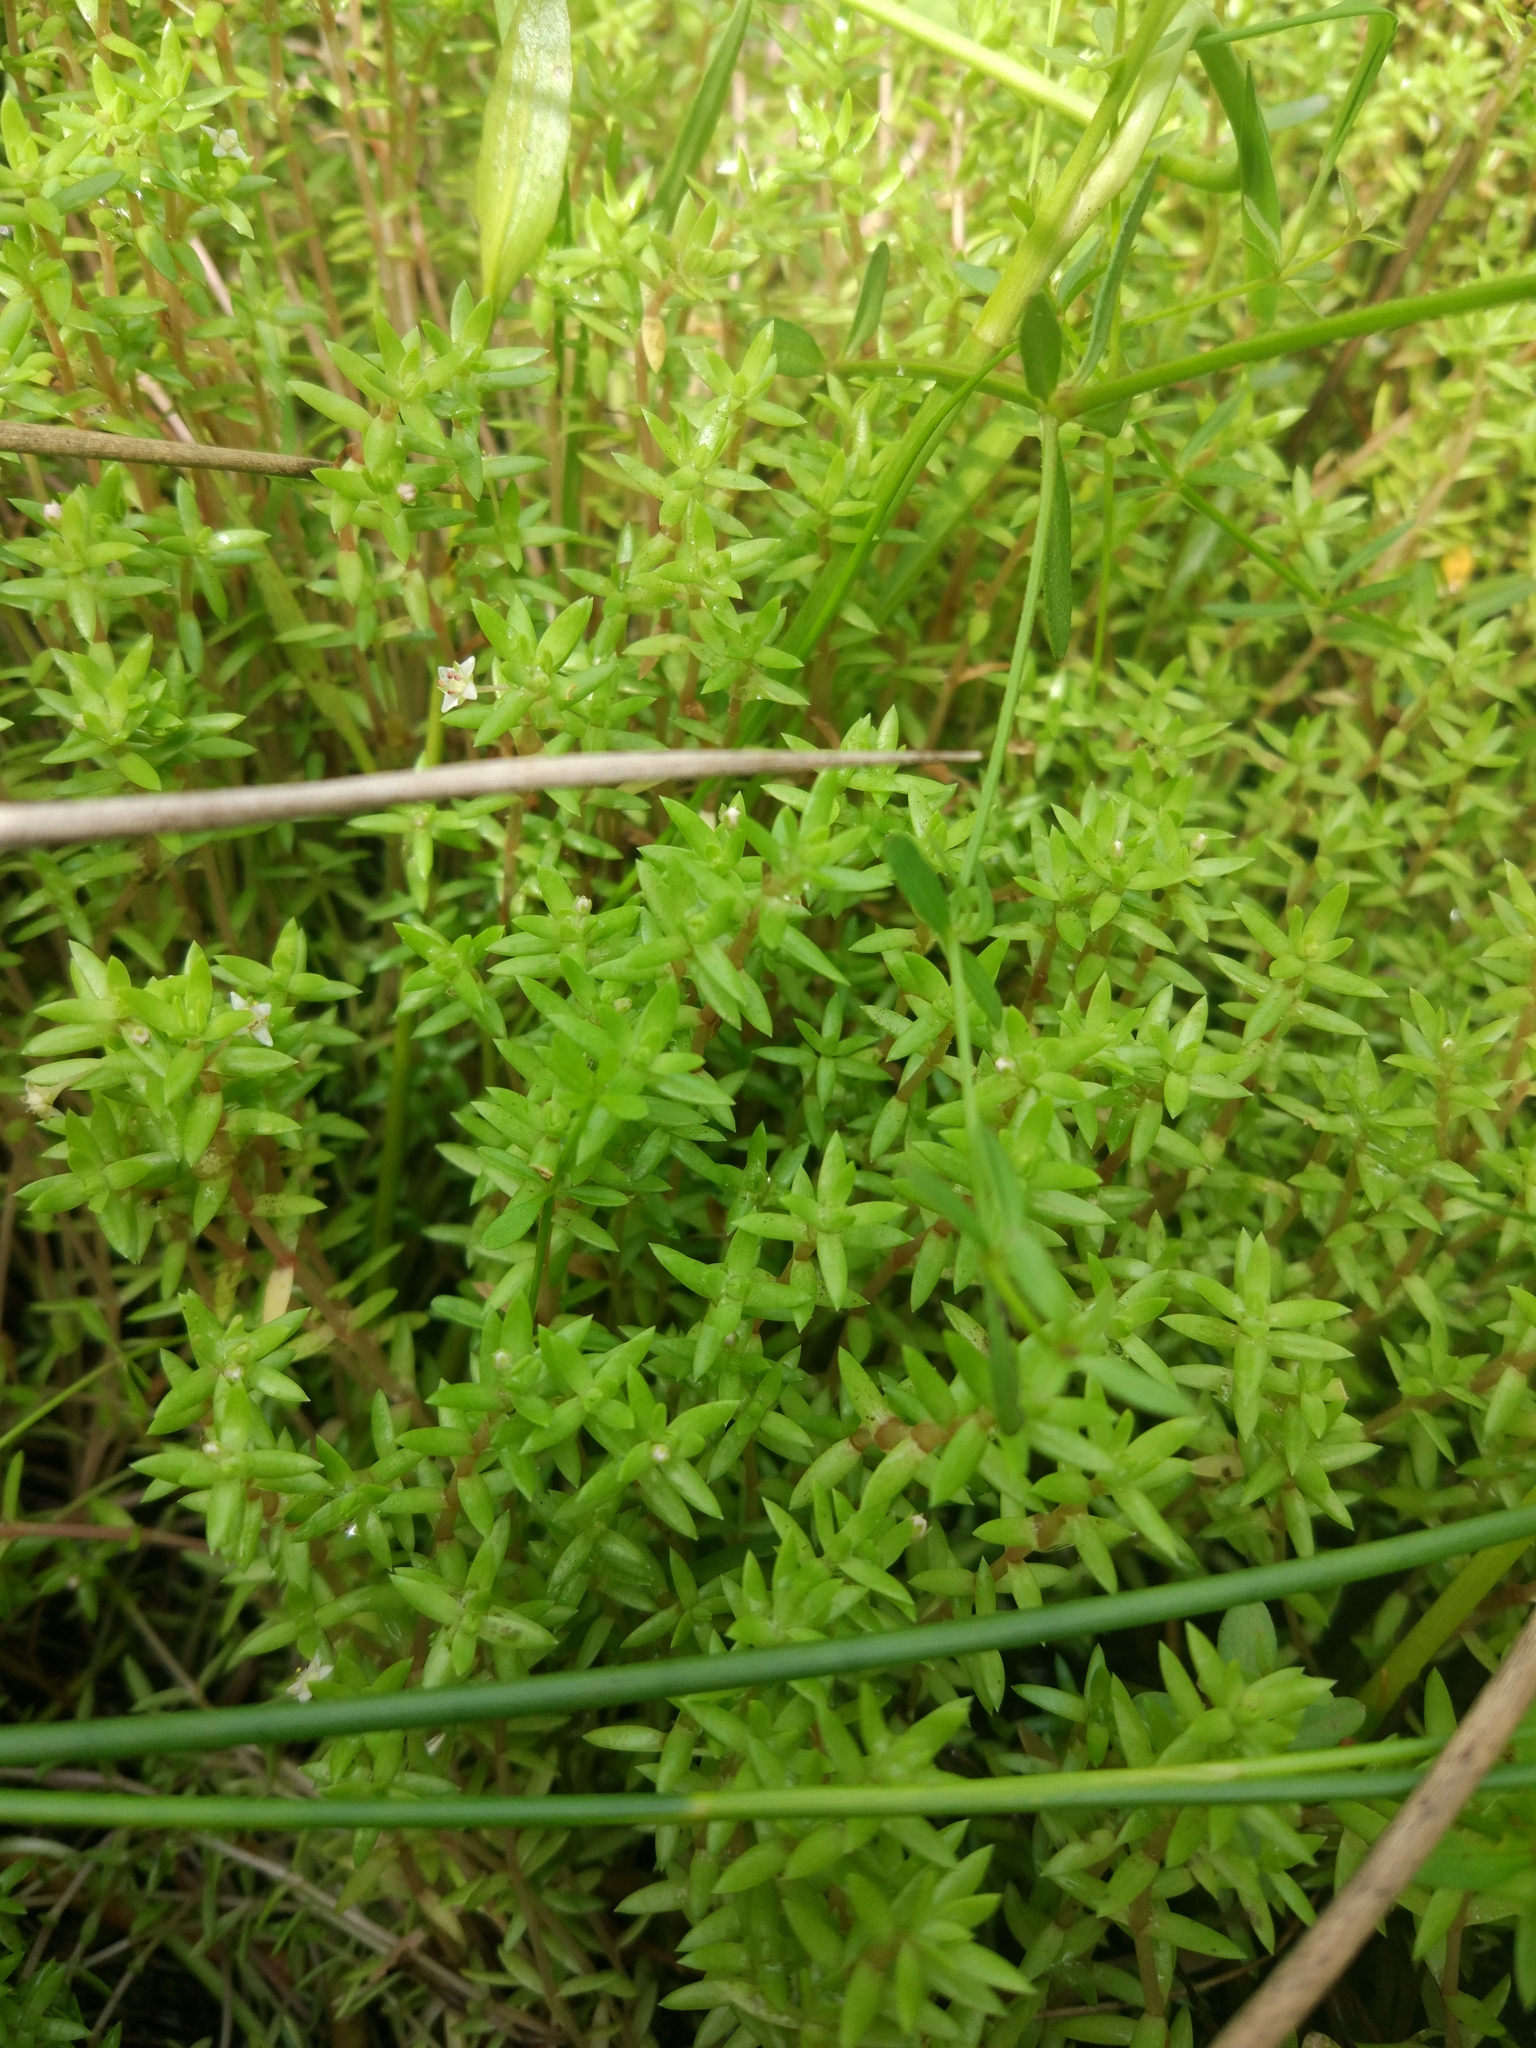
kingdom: Plantae
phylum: Tracheophyta
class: Magnoliopsida
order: Saxifragales
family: Crassulaceae
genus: Crassula
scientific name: Crassula helmsii
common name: New zealand pigmyweed
